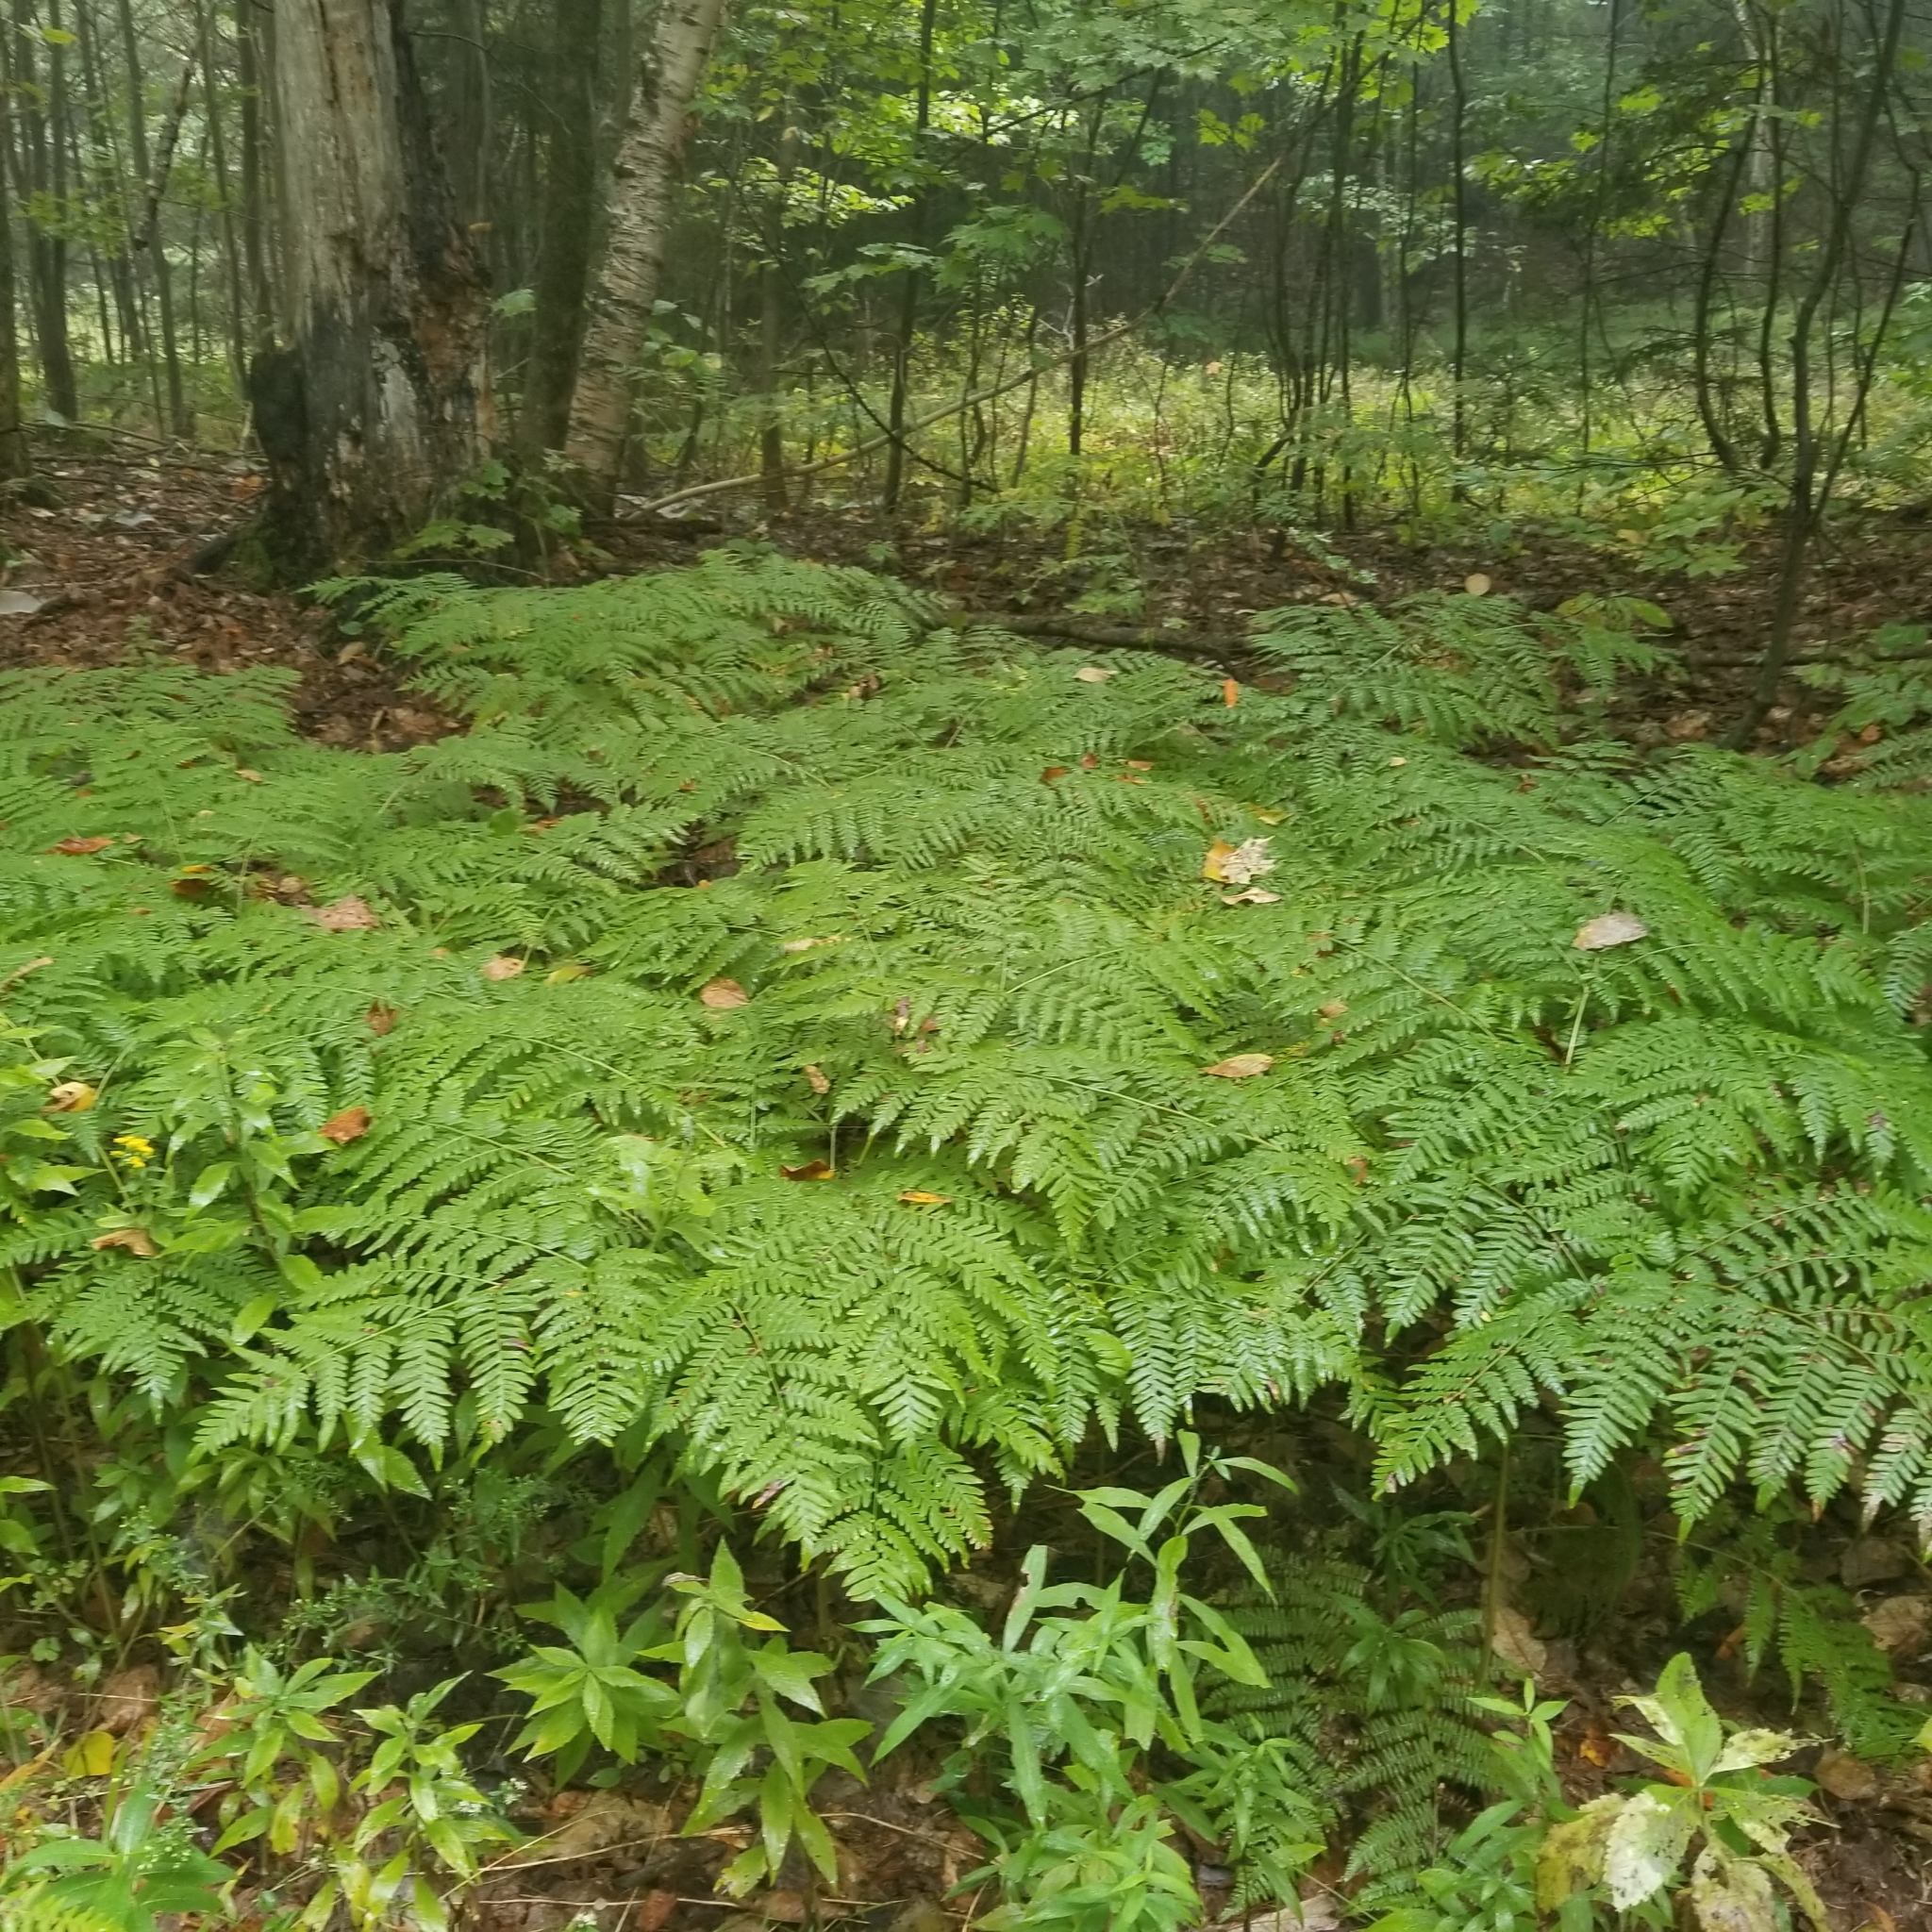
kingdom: Plantae
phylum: Tracheophyta
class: Polypodiopsida
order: Polypodiales
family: Dennstaedtiaceae
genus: Pteridium
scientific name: Pteridium aquilinum
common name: Bracken
